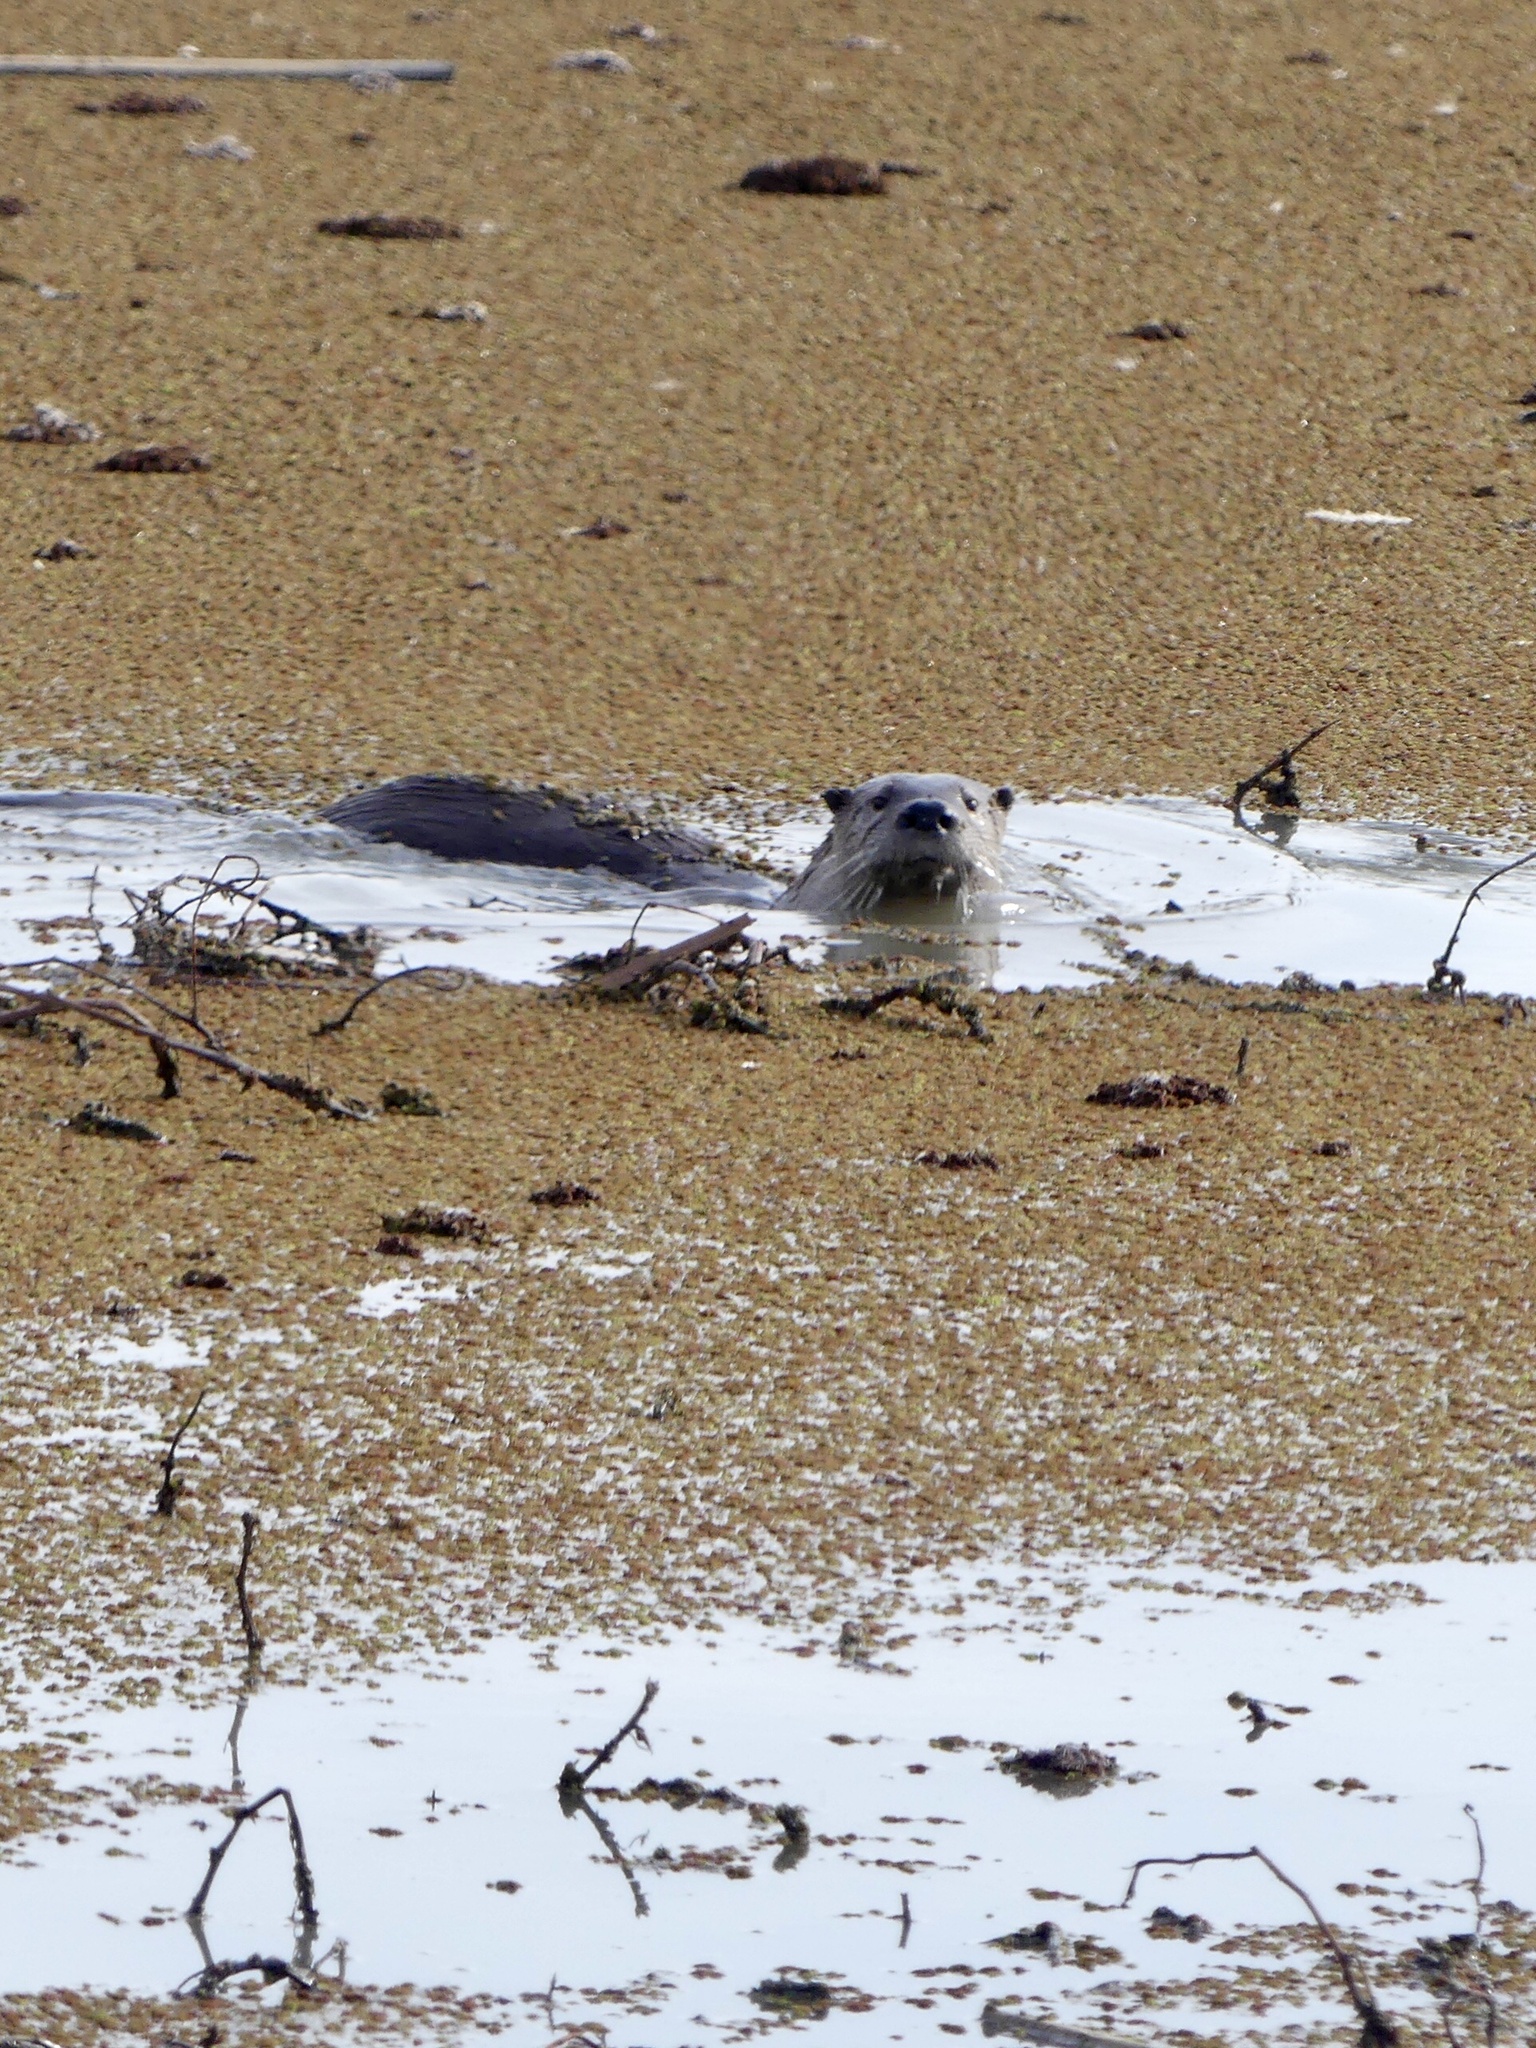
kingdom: Animalia
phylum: Chordata
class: Mammalia
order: Carnivora
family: Mustelidae
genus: Lontra
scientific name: Lontra canadensis
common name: North american river otter
